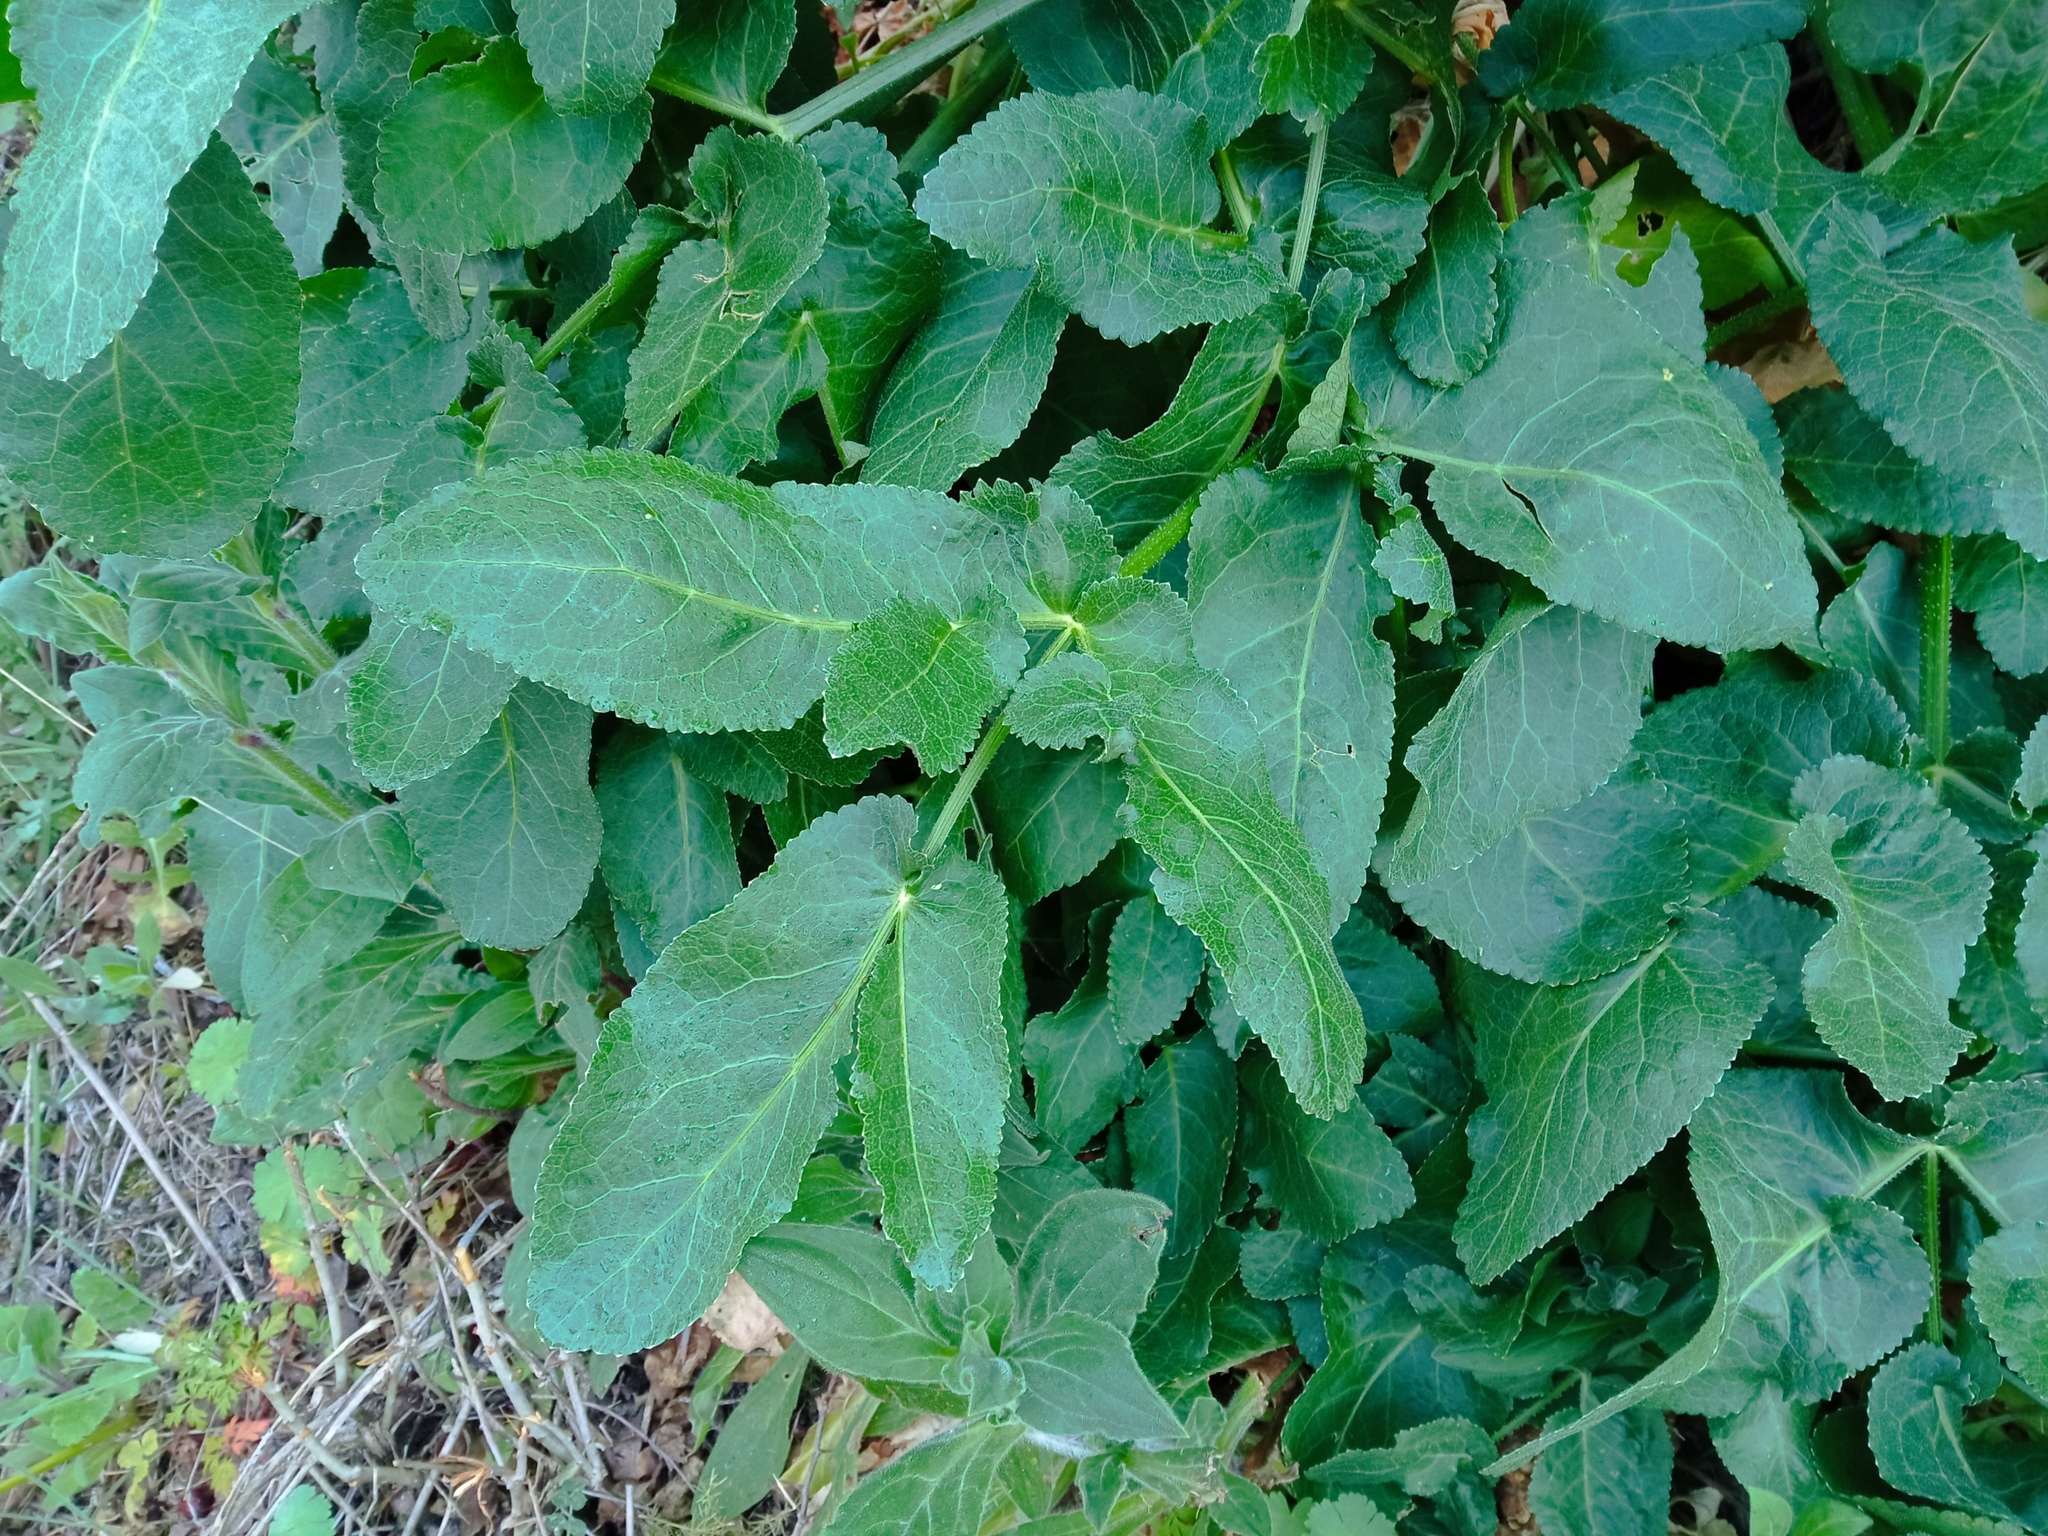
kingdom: Plantae
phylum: Tracheophyta
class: Magnoliopsida
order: Apiales
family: Apiaceae
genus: Opopanax
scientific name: Opopanax chironium
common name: Hercules-all-heal
